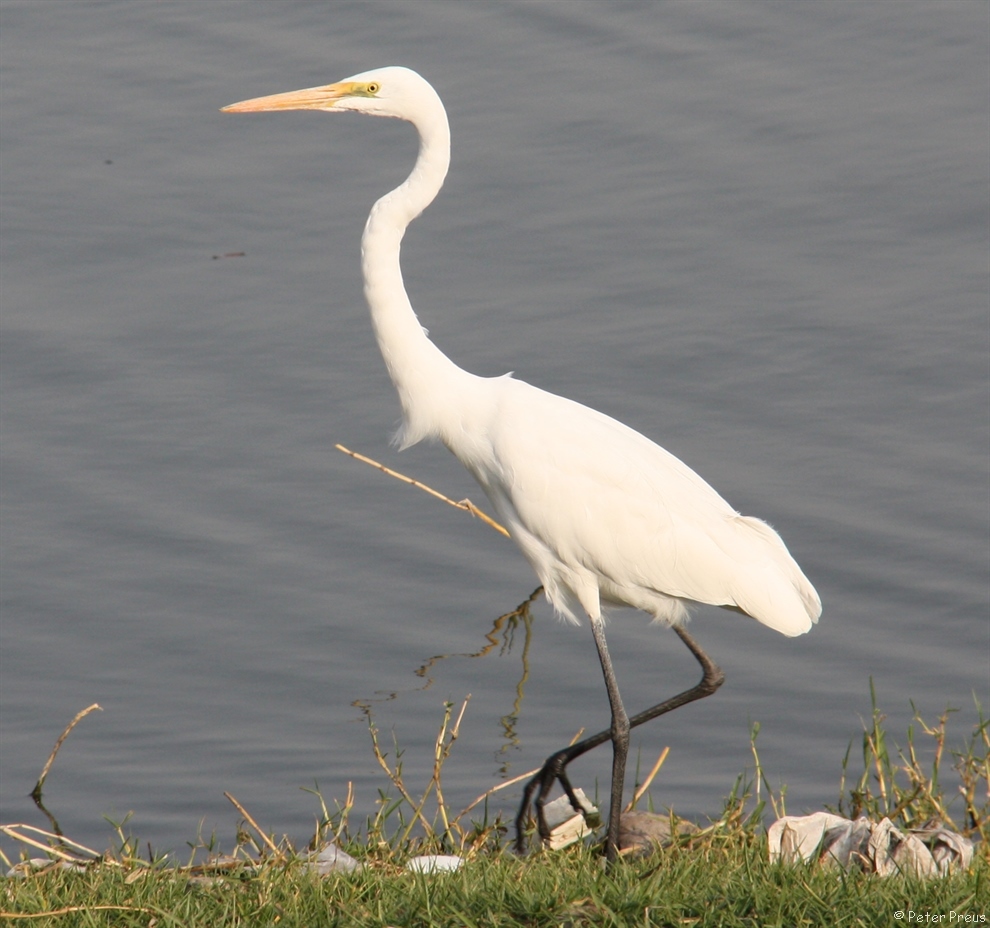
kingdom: Animalia
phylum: Chordata
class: Aves
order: Pelecaniformes
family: Ardeidae
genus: Ardea
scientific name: Ardea alba
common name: Great egret
